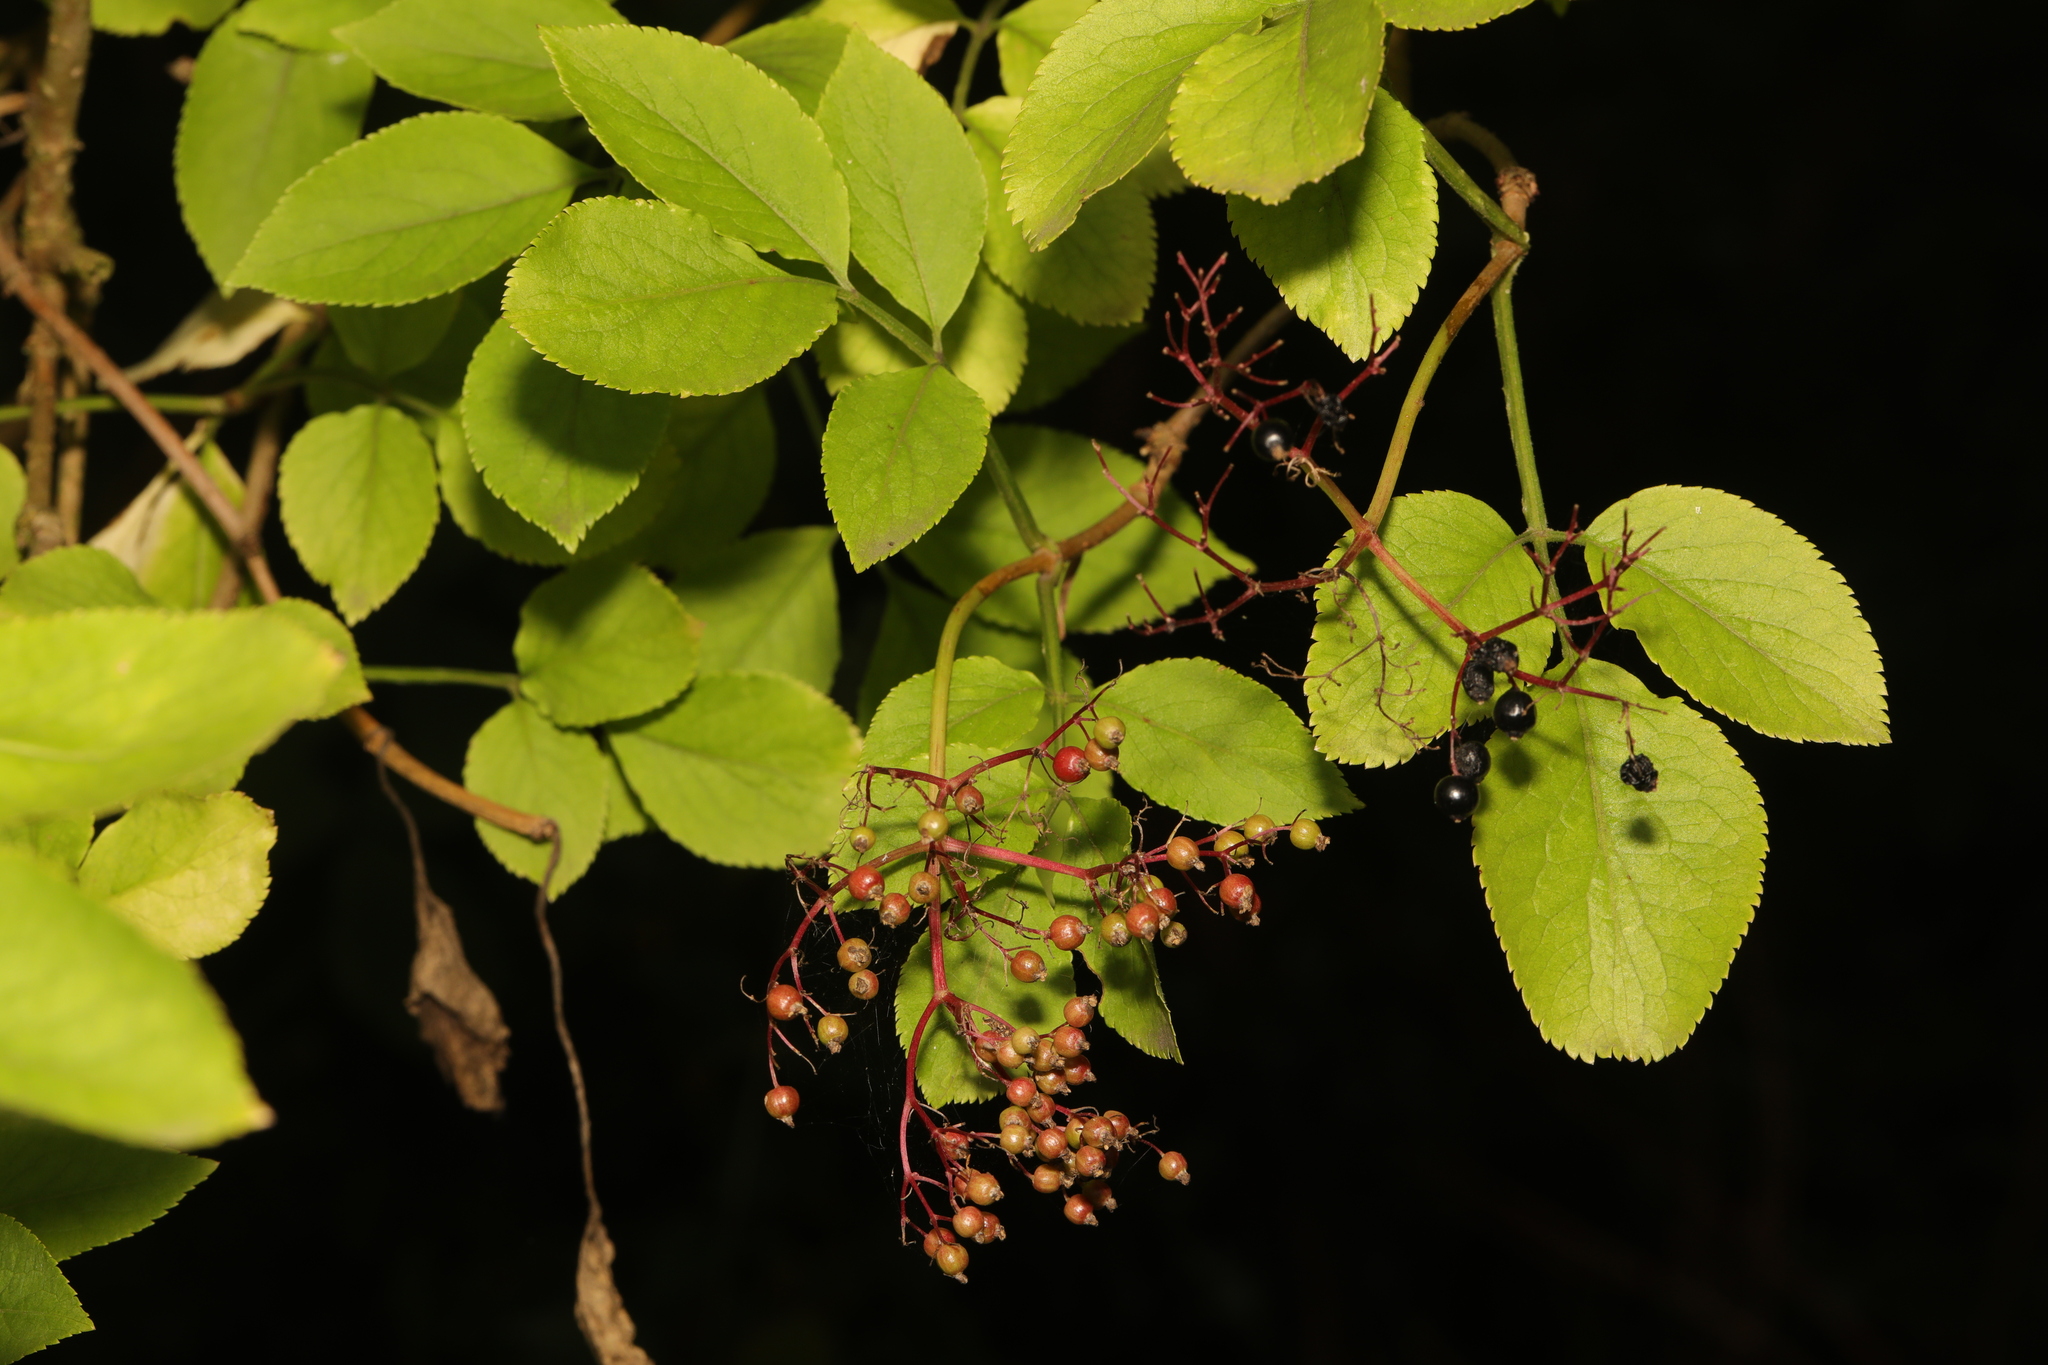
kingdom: Plantae
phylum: Tracheophyta
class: Magnoliopsida
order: Dipsacales
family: Viburnaceae
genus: Sambucus
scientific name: Sambucus nigra
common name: Elder
